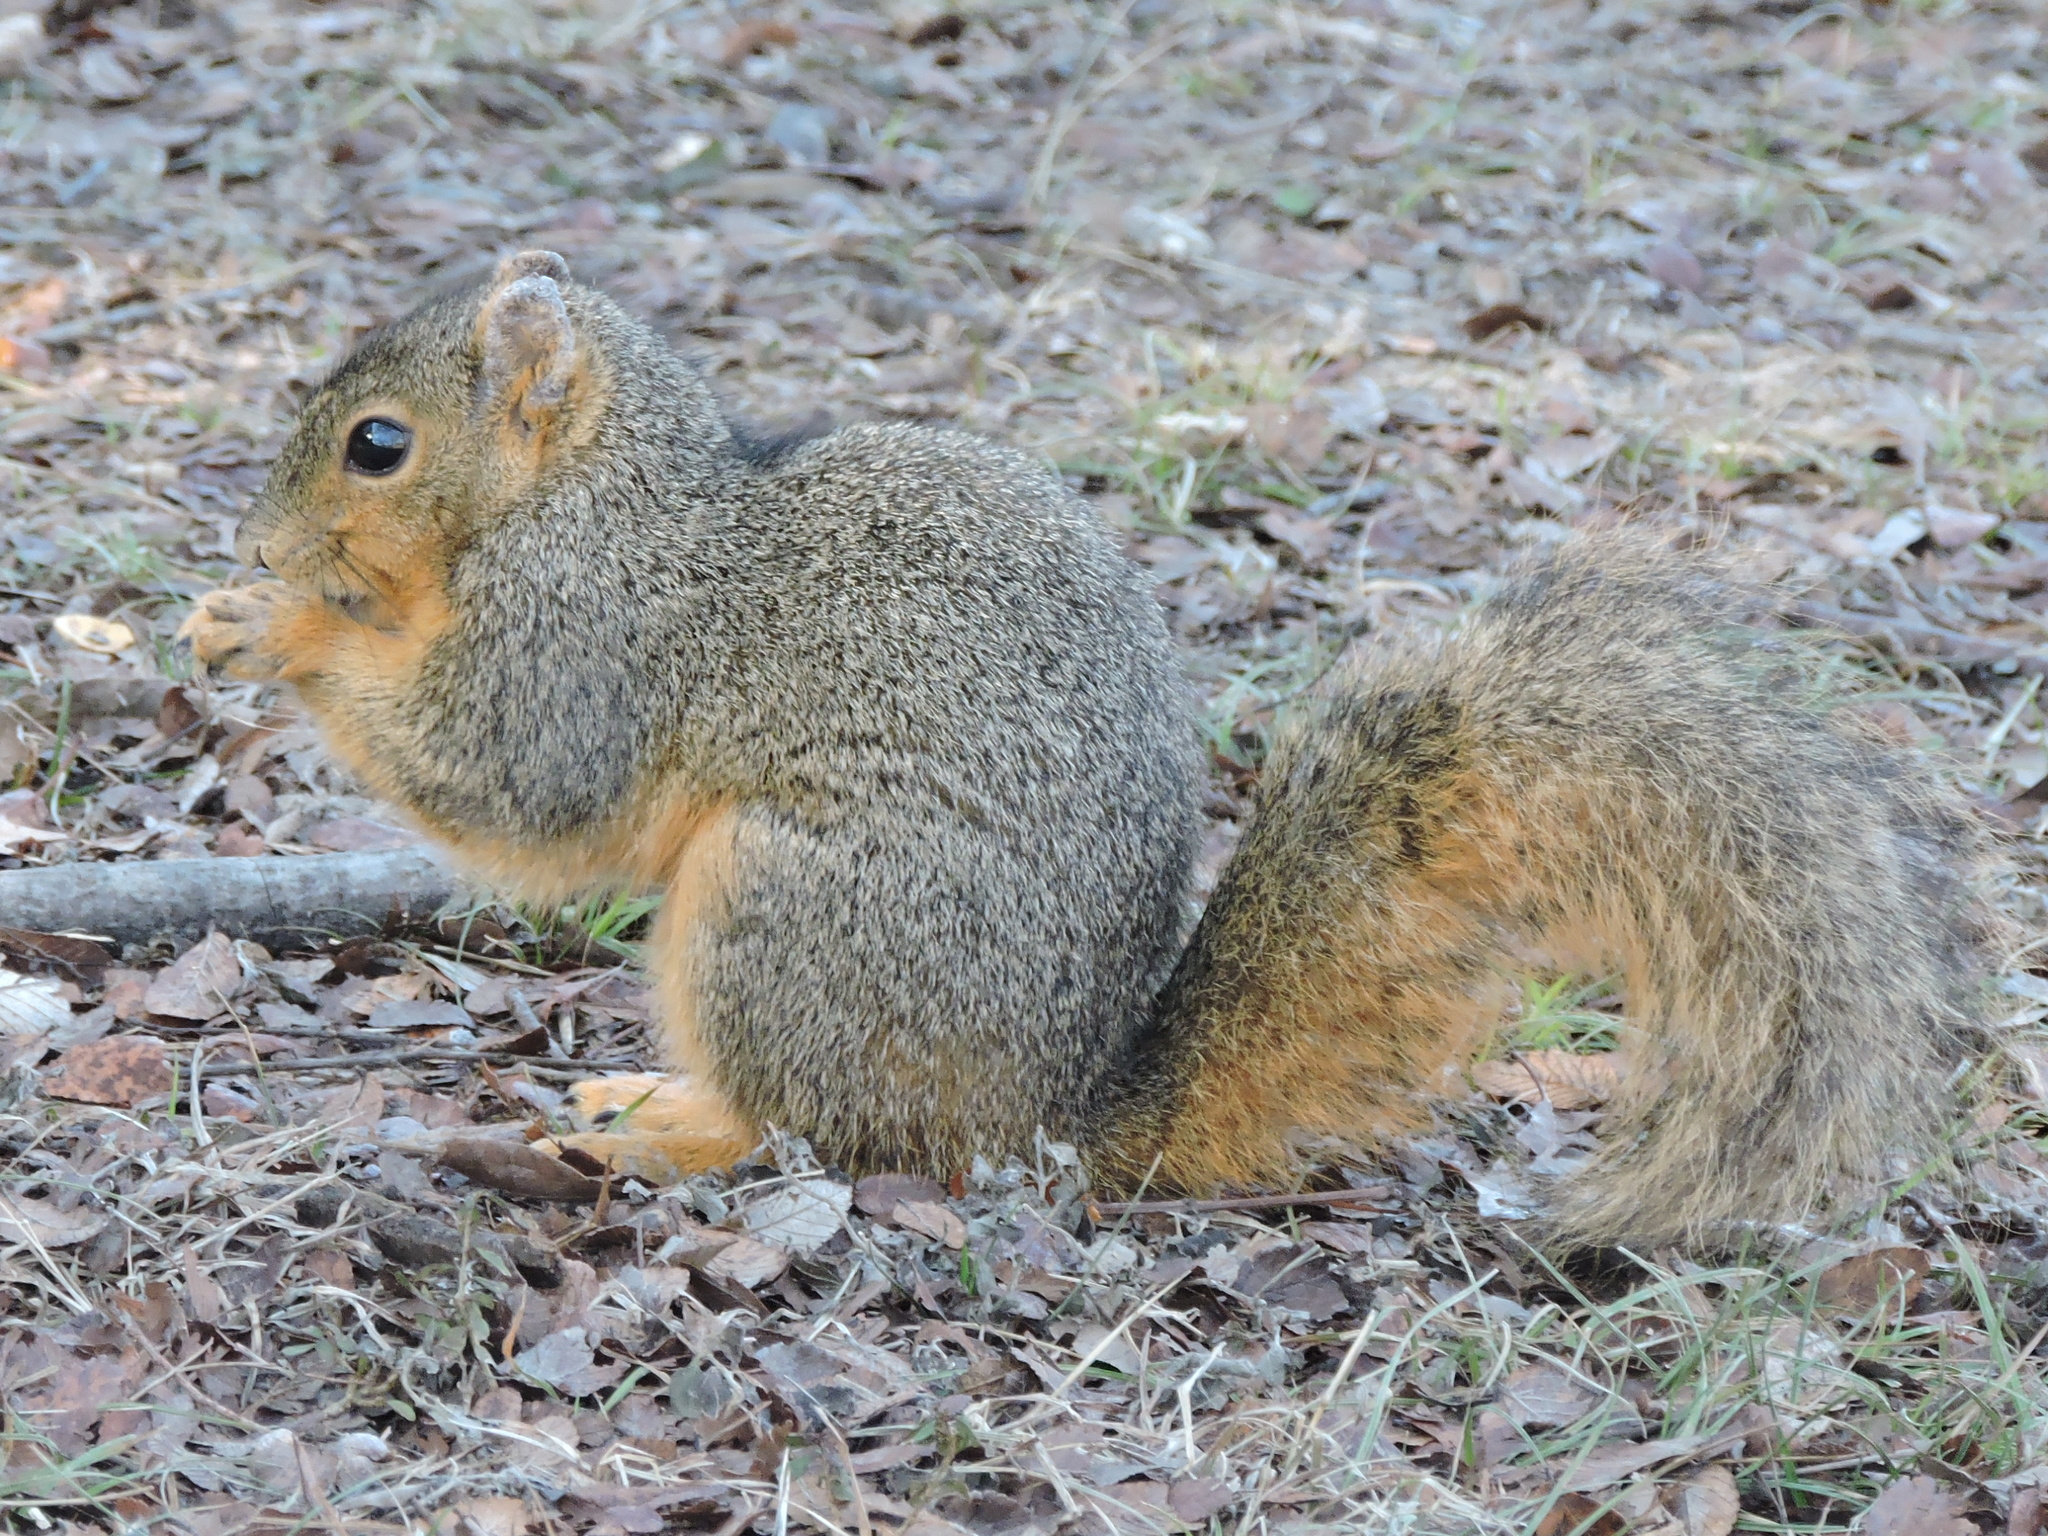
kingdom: Animalia
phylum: Chordata
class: Mammalia
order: Rodentia
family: Sciuridae
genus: Sciurus
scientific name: Sciurus niger
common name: Fox squirrel
